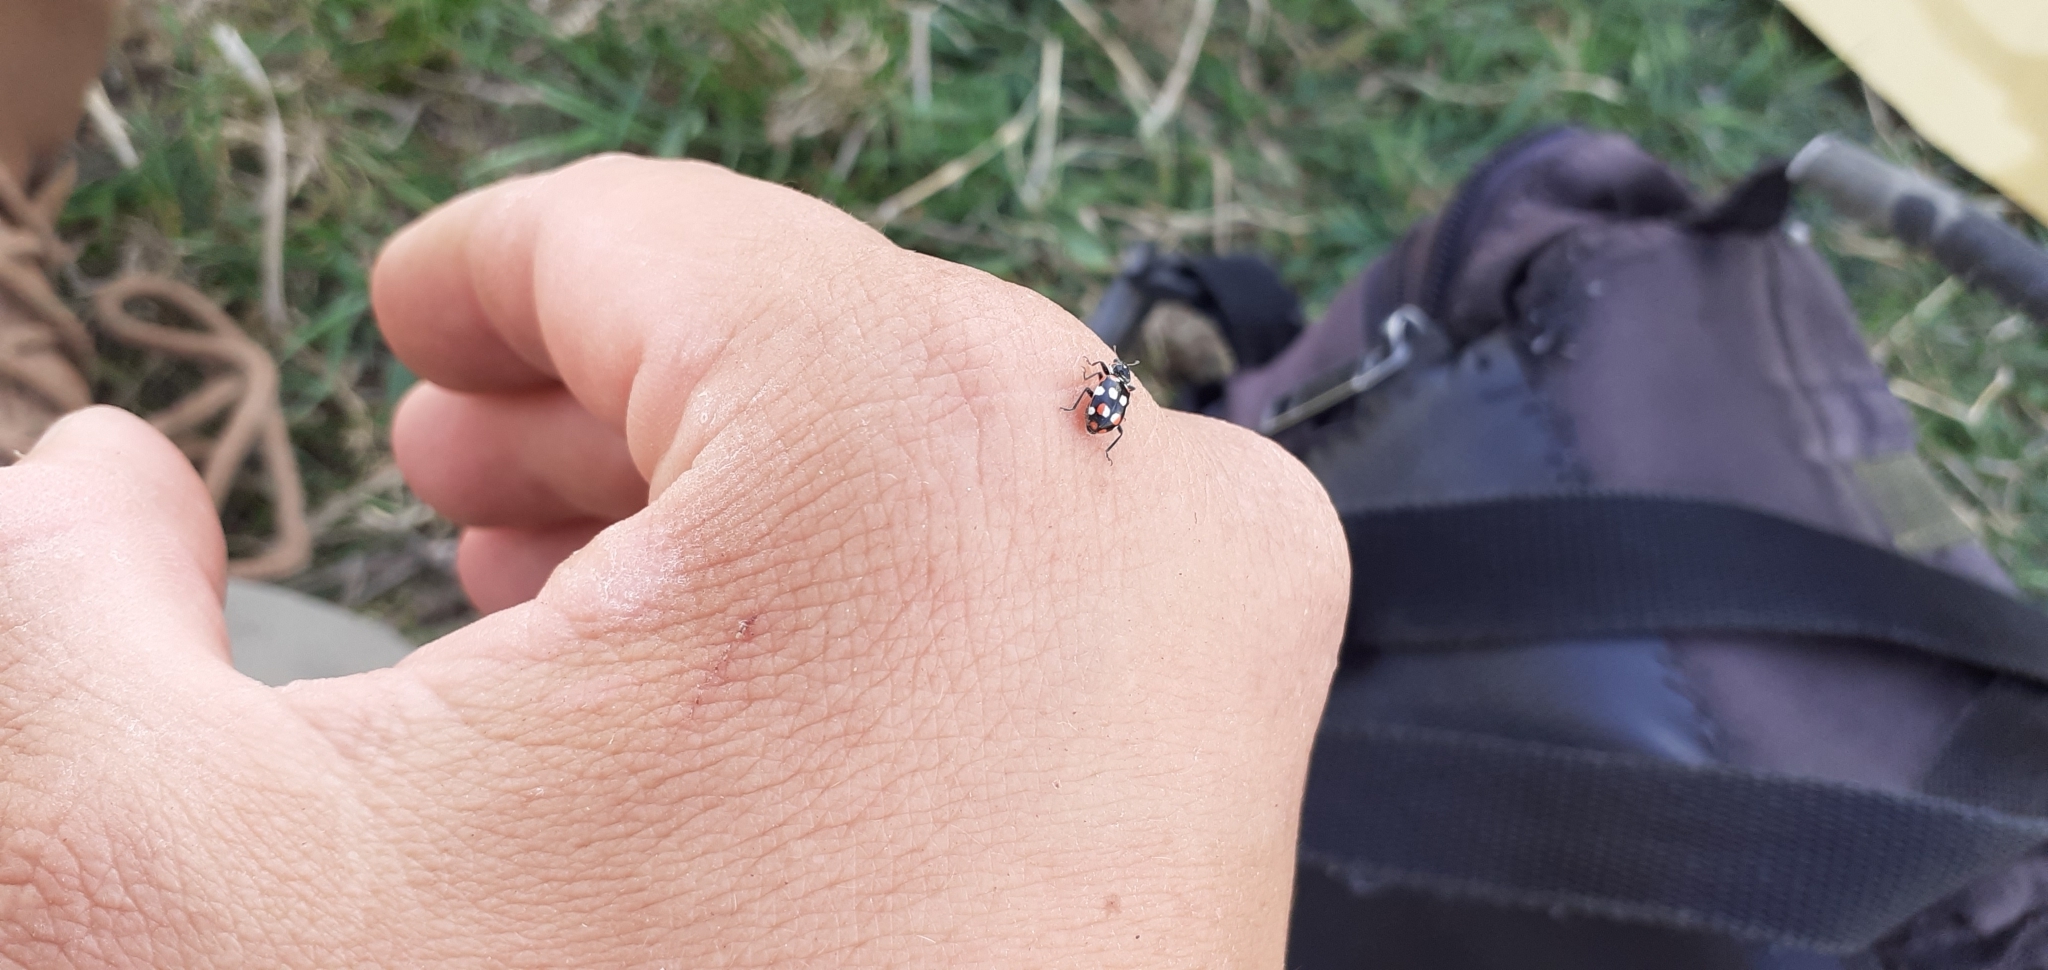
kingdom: Animalia
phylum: Arthropoda
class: Insecta
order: Coleoptera
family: Coccinellidae
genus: Eriopis
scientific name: Eriopis connexa
